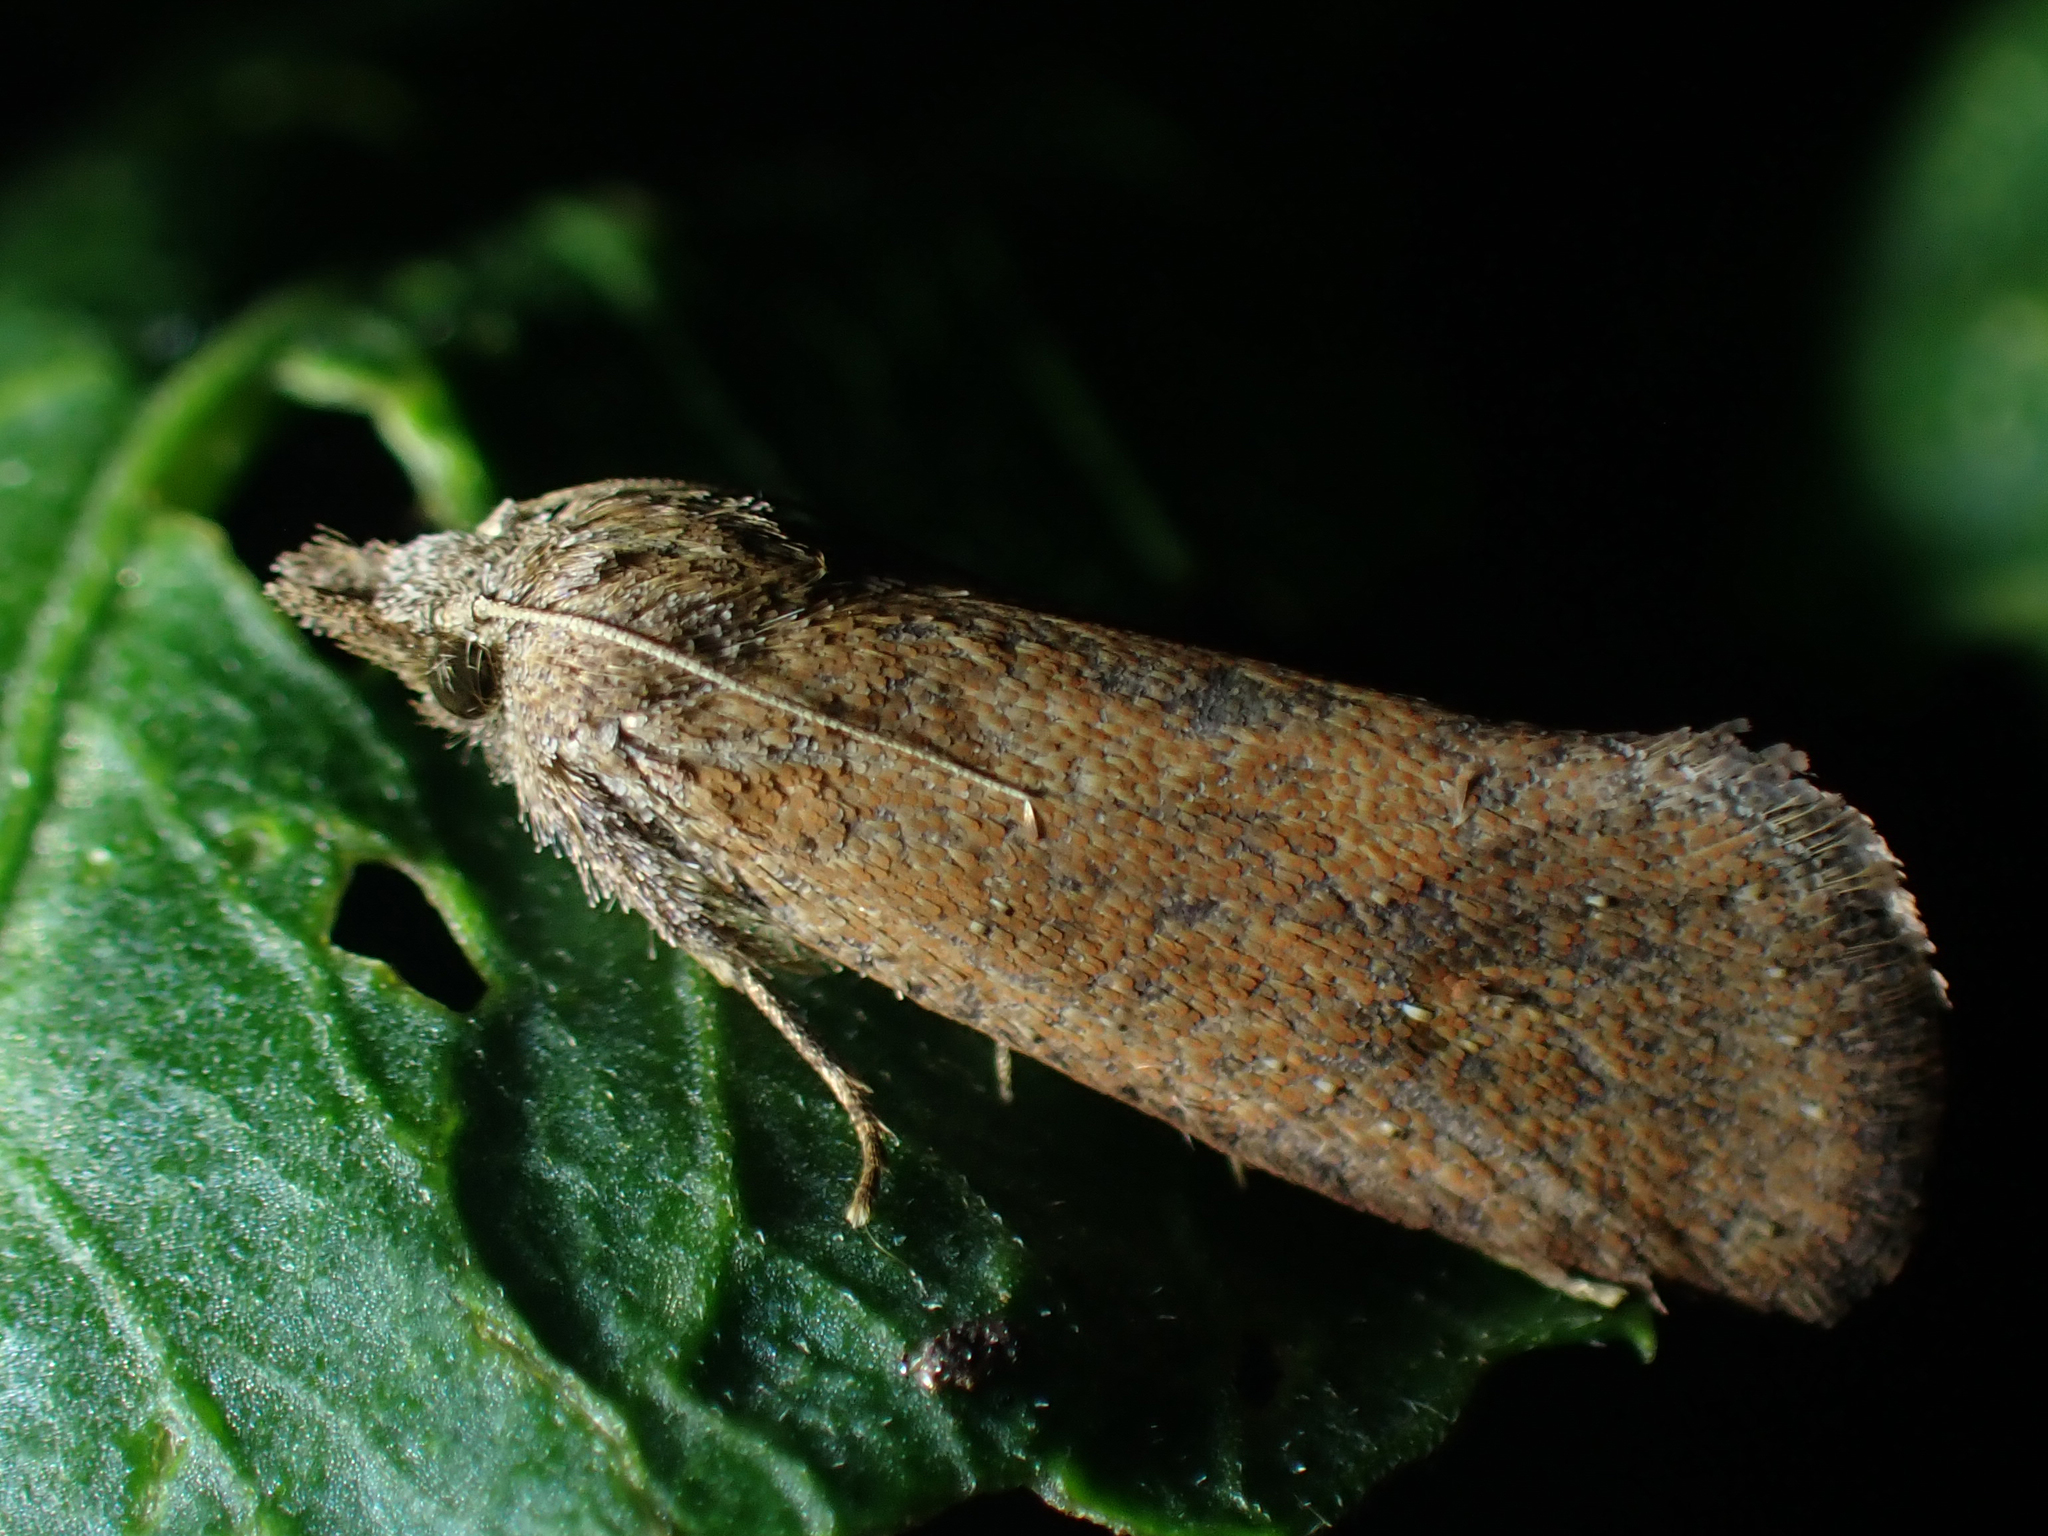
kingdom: Animalia
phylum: Arthropoda
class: Insecta
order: Lepidoptera
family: Tineidae
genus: Acrolophus
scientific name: Acrolophus walsinghami
